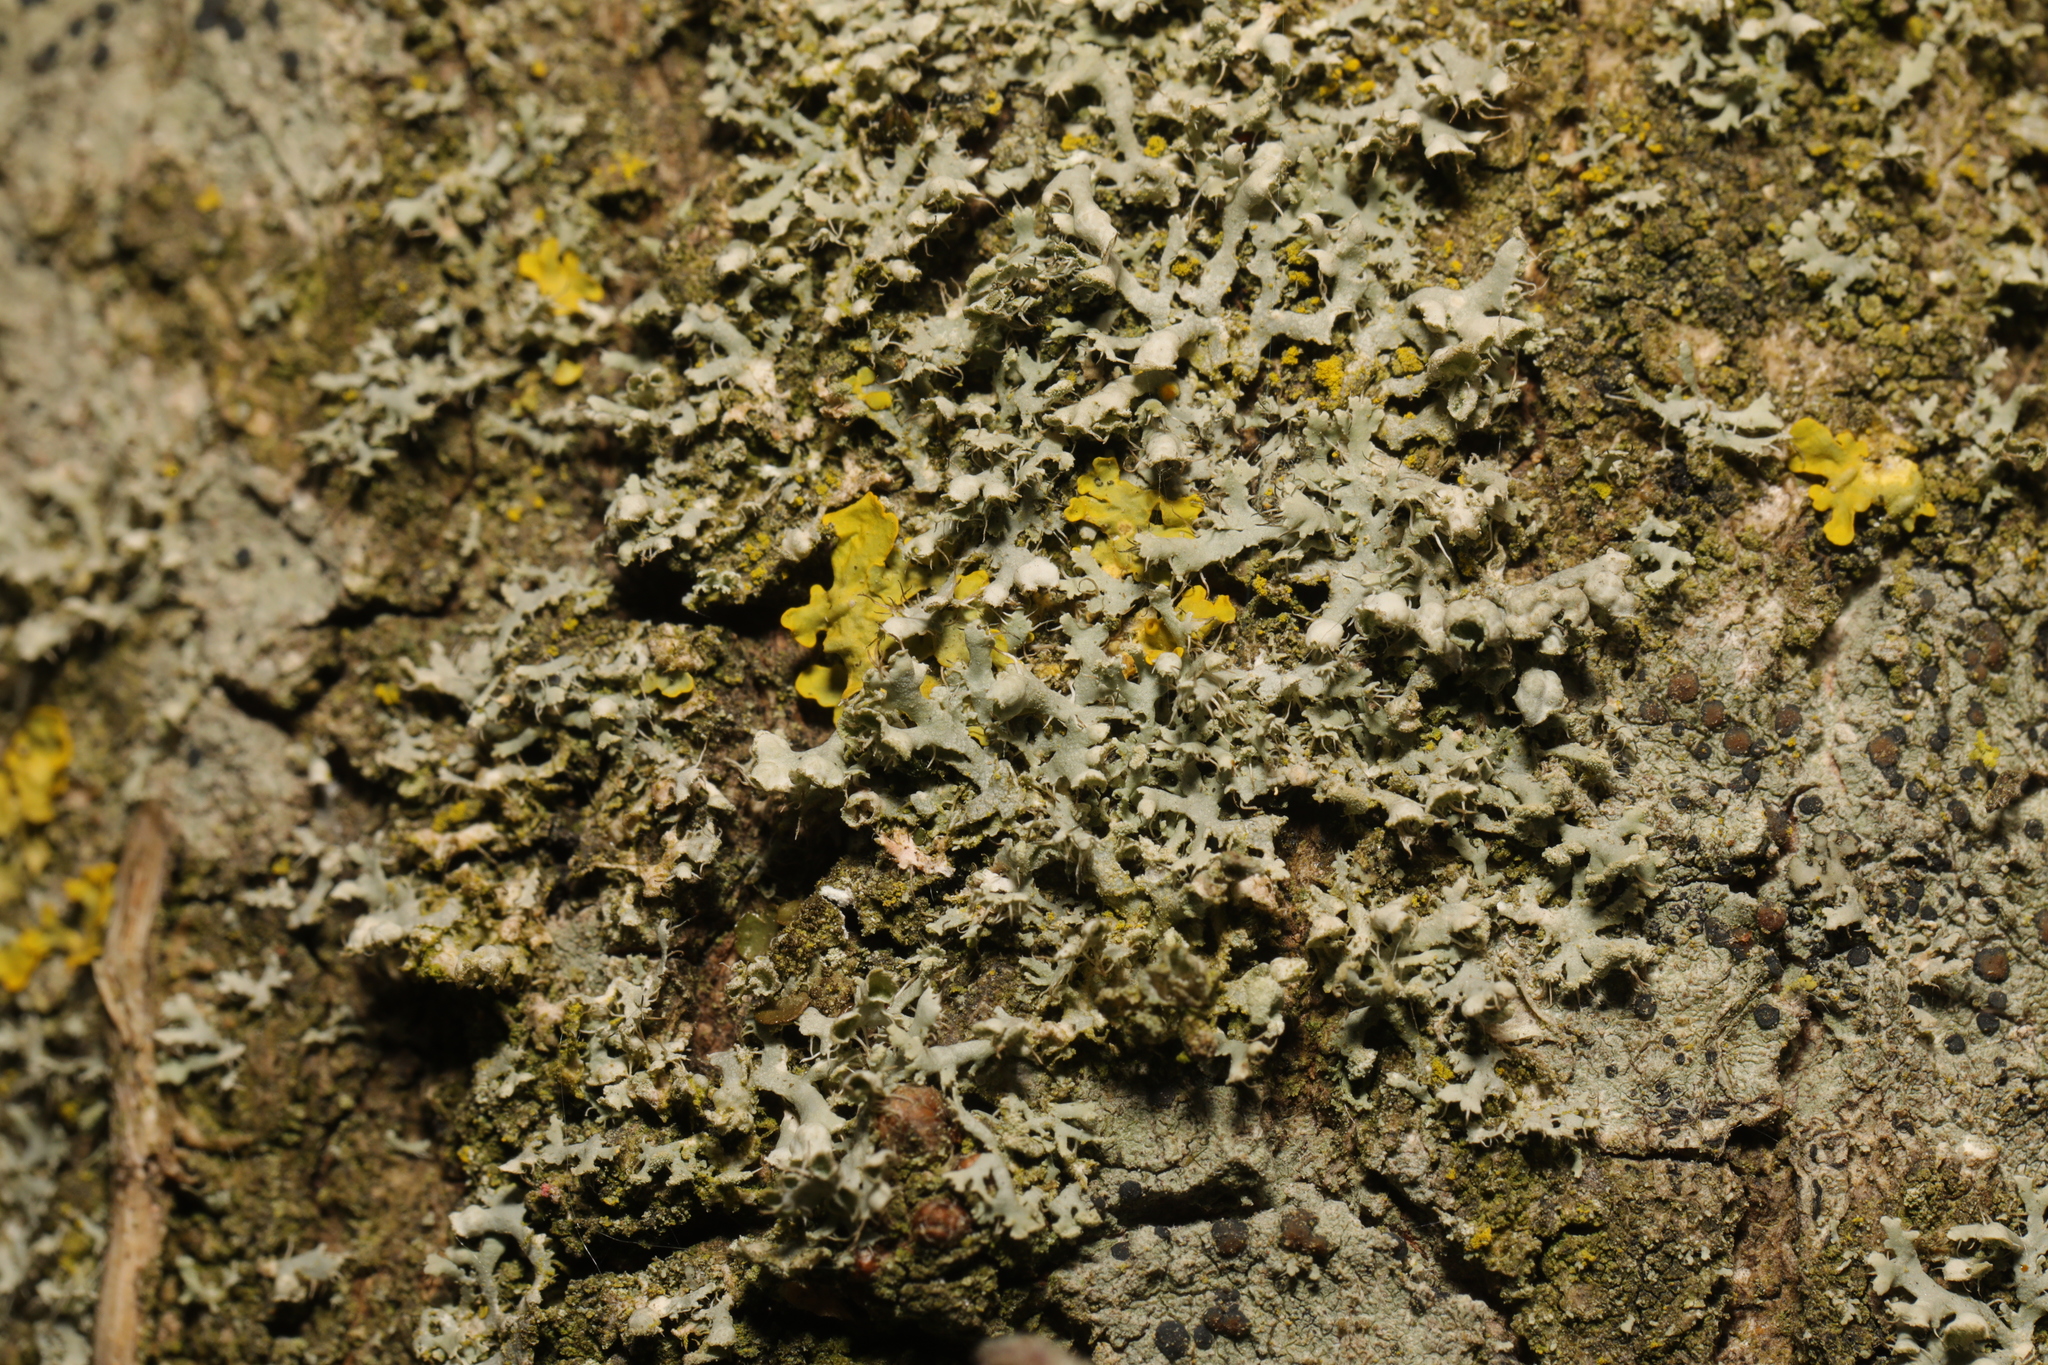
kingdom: Fungi
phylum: Ascomycota
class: Lecanoromycetes
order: Caliciales
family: Physciaceae
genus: Physcia
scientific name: Physcia adscendens
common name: Hooded rosette lichen
